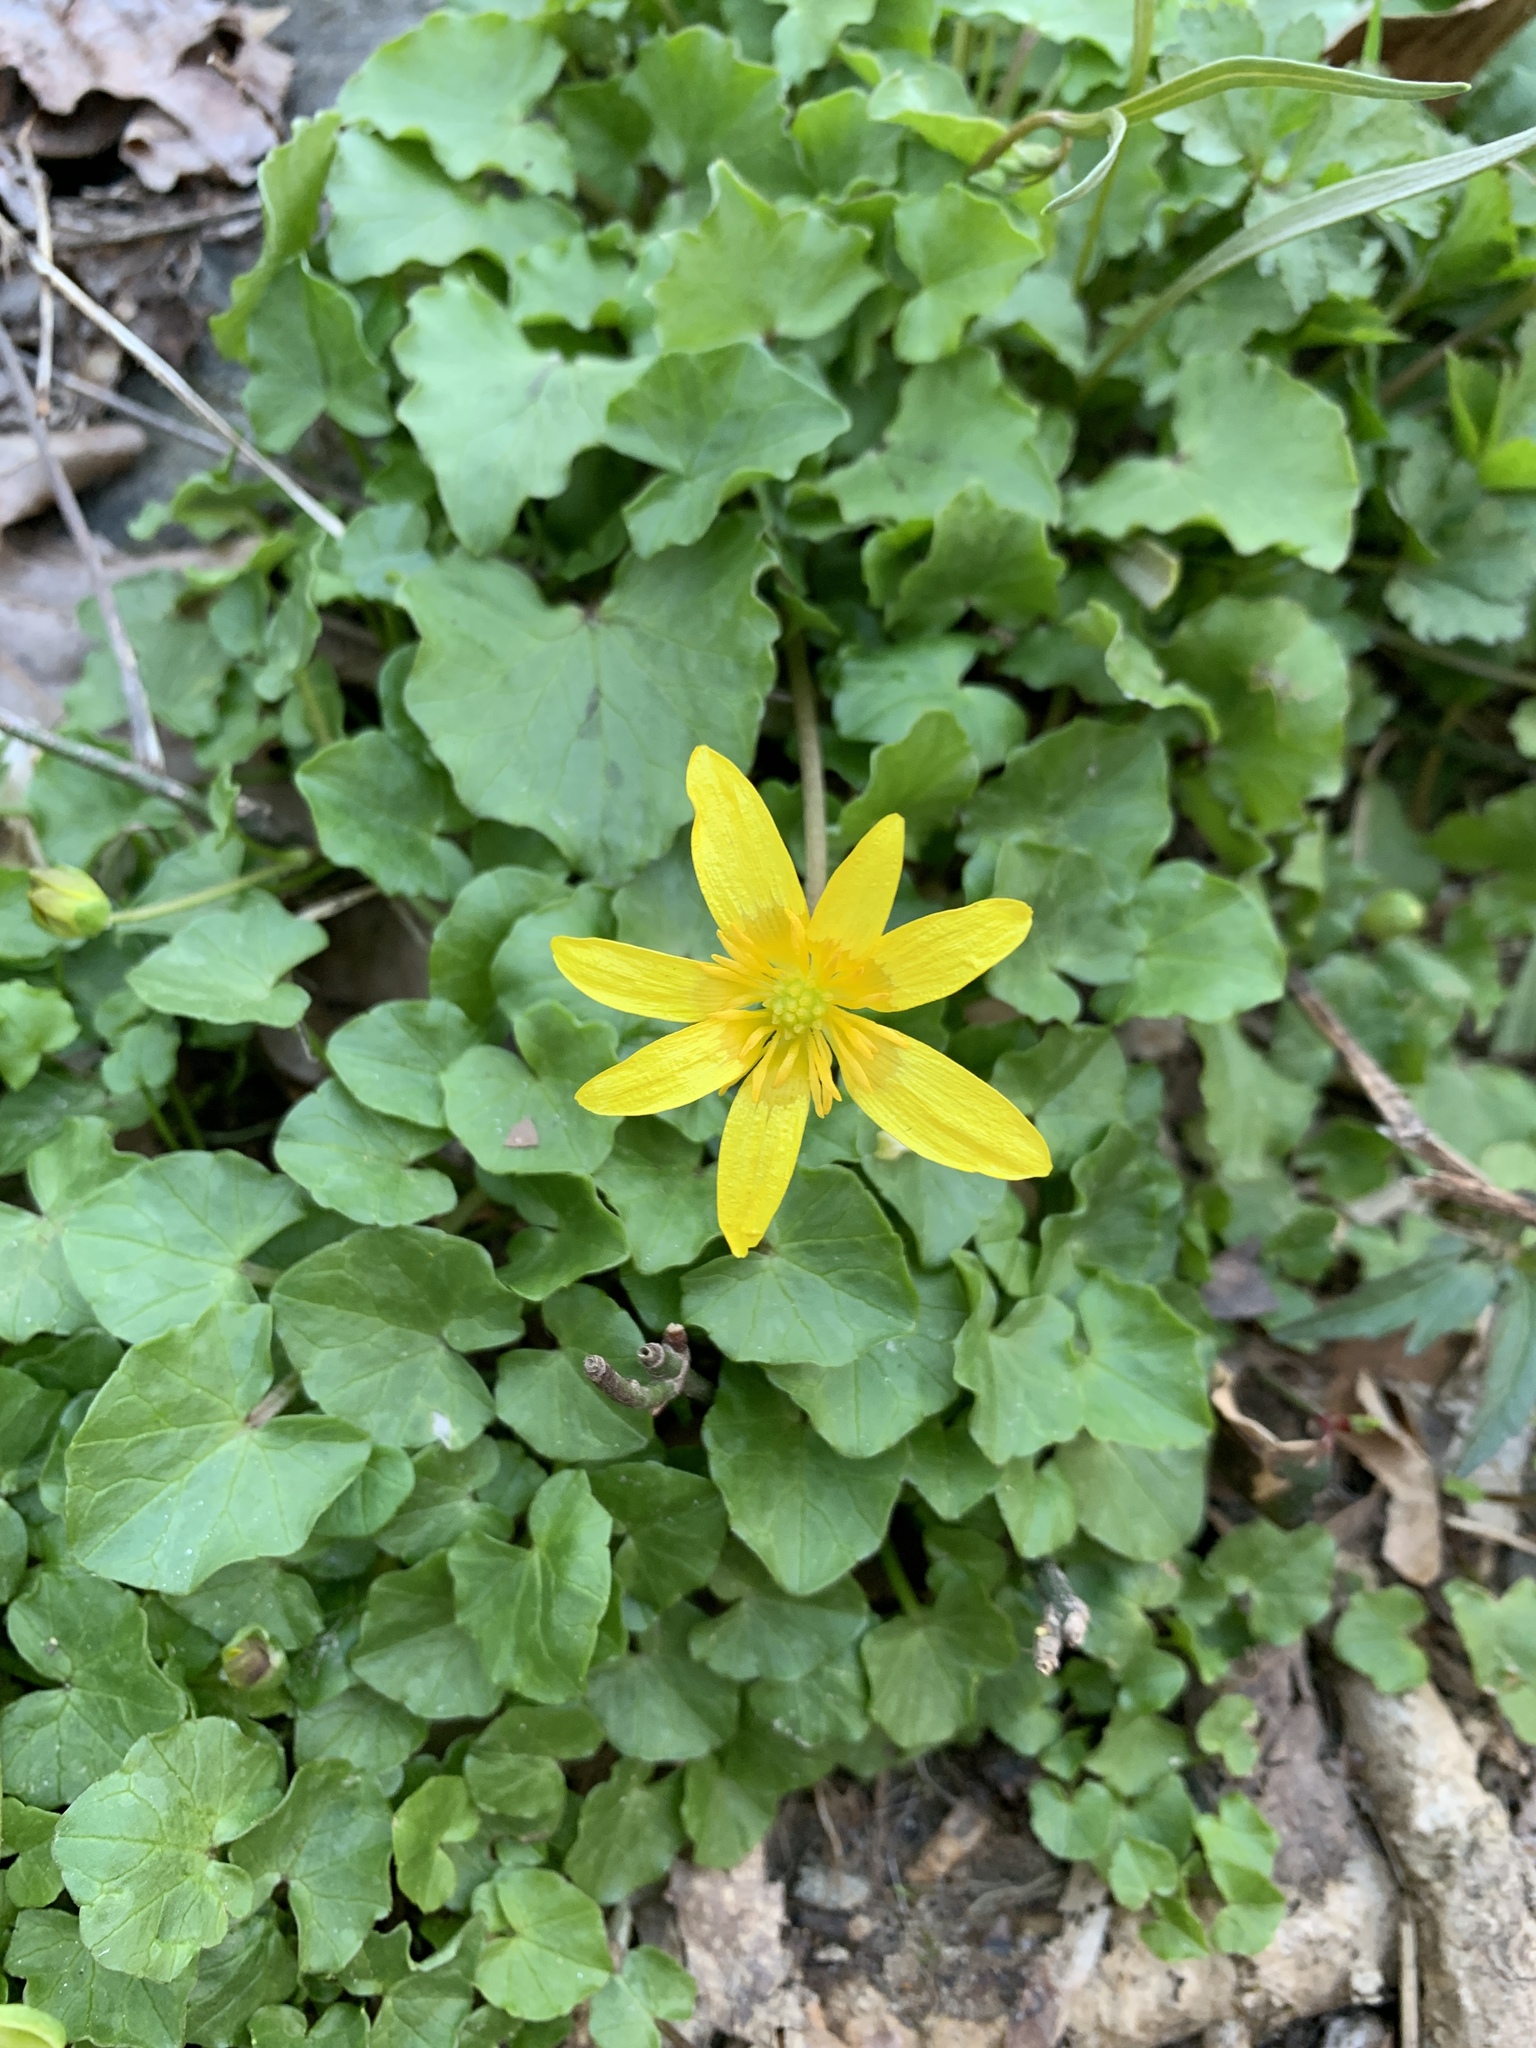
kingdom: Plantae
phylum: Tracheophyta
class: Magnoliopsida
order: Ranunculales
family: Ranunculaceae
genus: Ficaria
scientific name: Ficaria verna
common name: Lesser celandine
